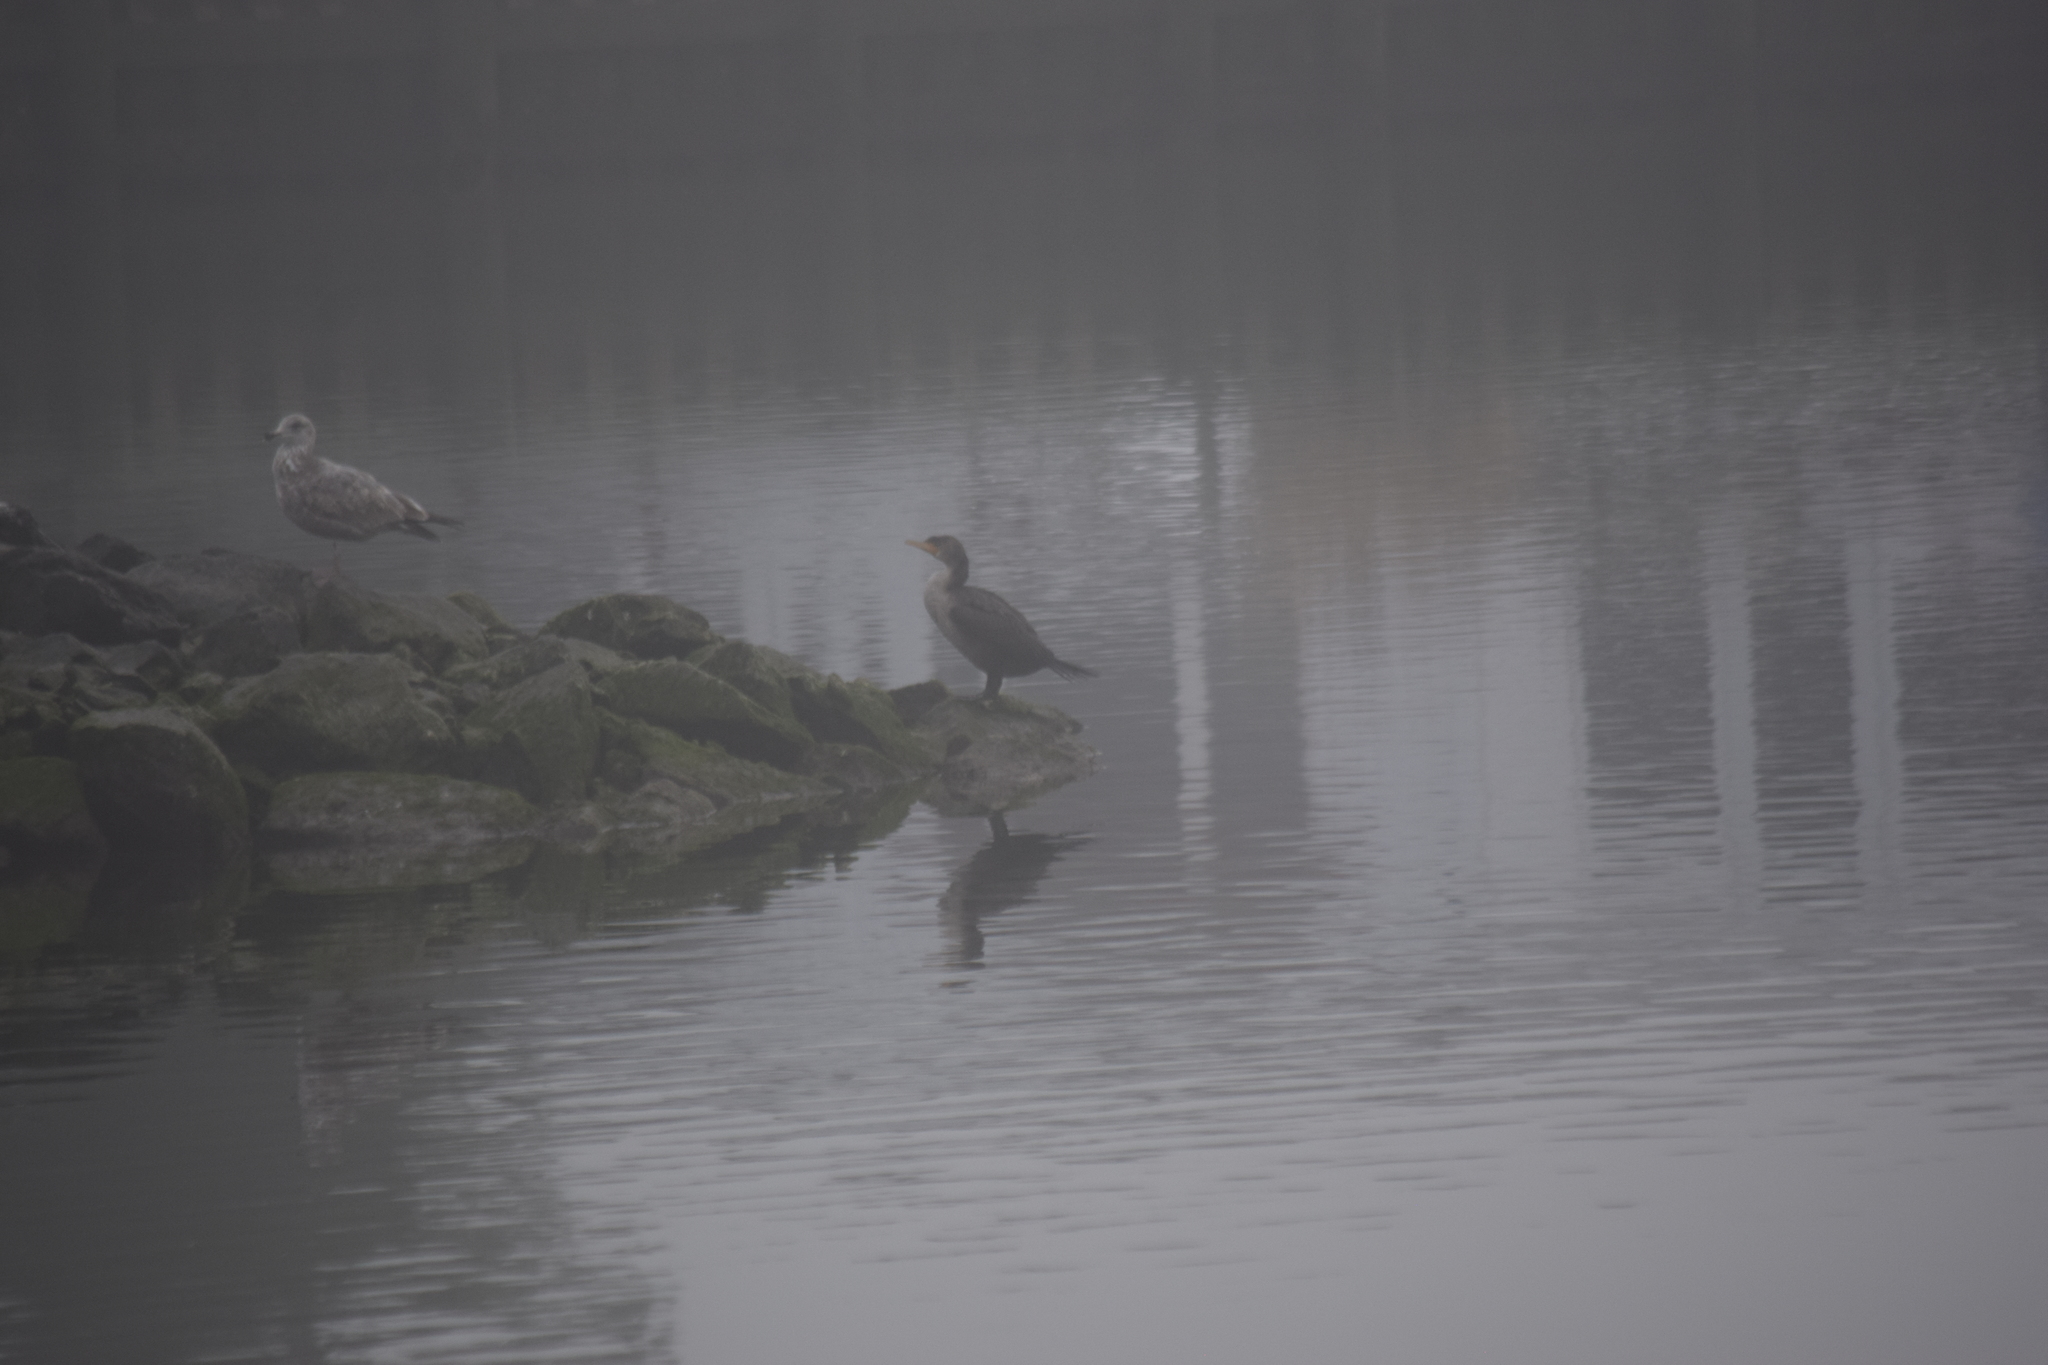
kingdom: Animalia
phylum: Chordata
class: Aves
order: Suliformes
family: Phalacrocoracidae
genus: Phalacrocorax
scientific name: Phalacrocorax auritus
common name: Double-crested cormorant
